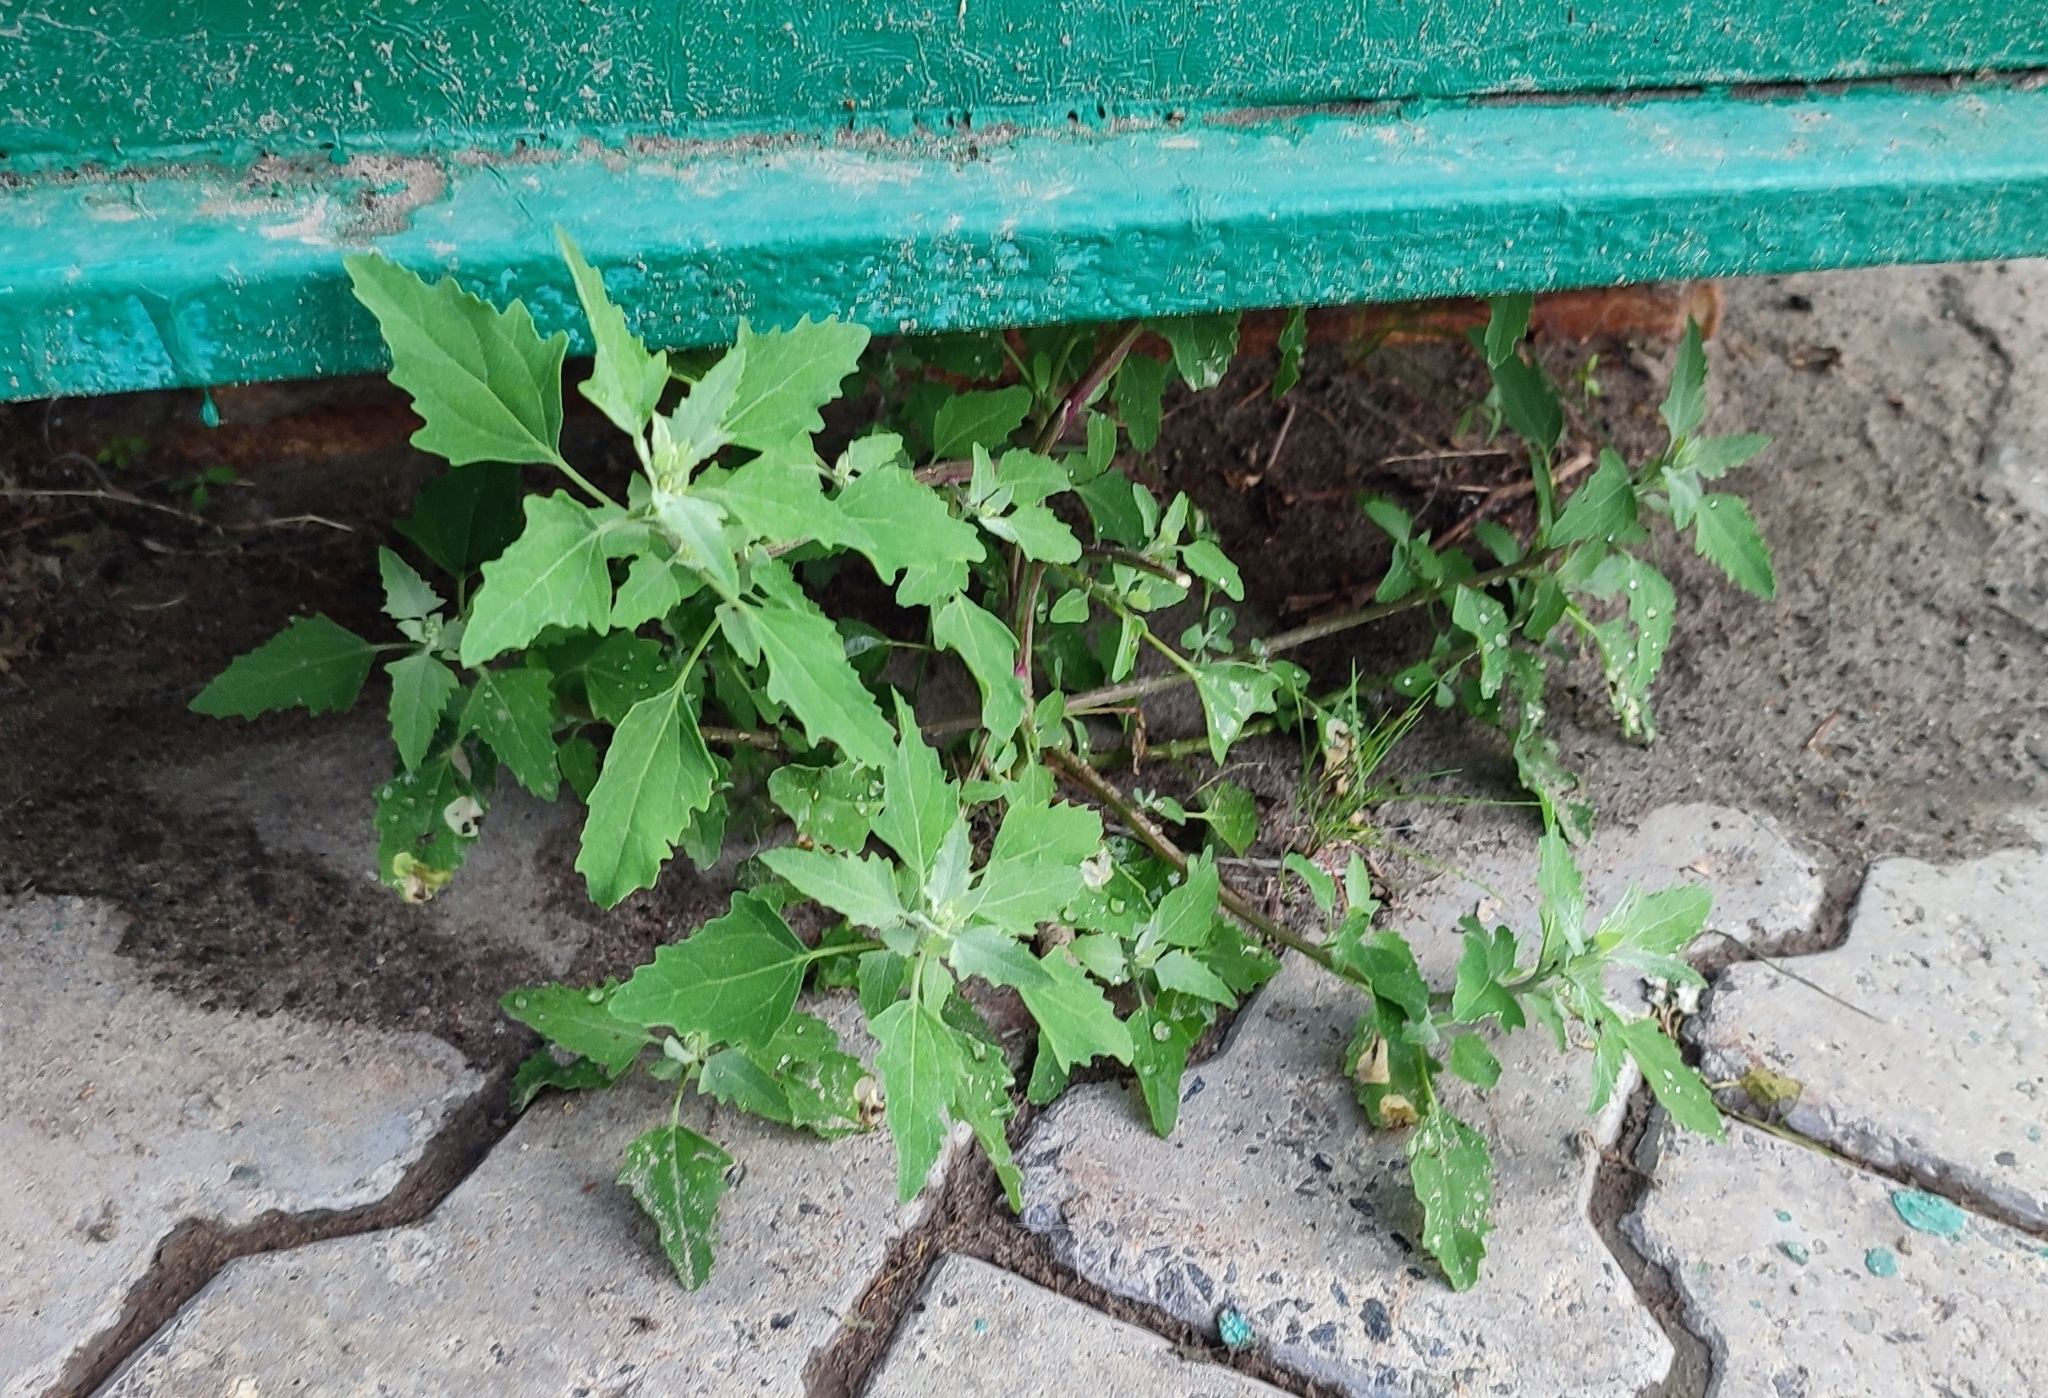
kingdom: Plantae
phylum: Tracheophyta
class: Magnoliopsida
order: Caryophyllales
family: Amaranthaceae
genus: Chenopodium
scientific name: Chenopodium album
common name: Fat-hen
